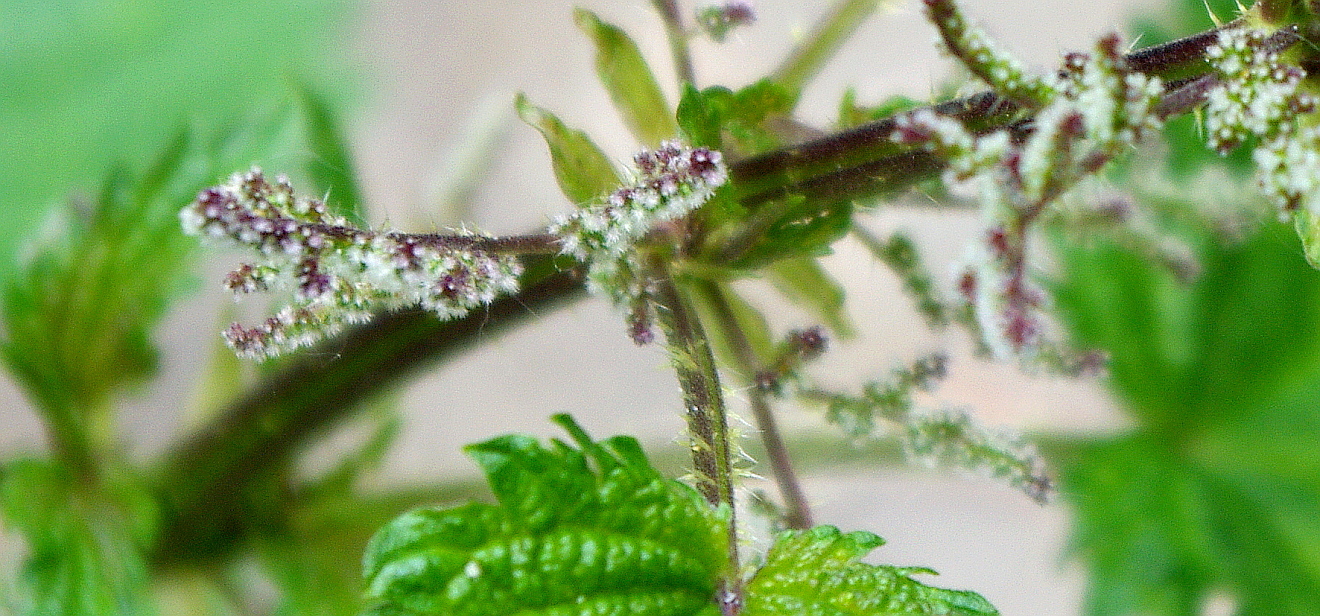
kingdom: Plantae
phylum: Tracheophyta
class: Magnoliopsida
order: Rosales
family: Urticaceae
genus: Urtica
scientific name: Urtica dioica
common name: Common nettle
